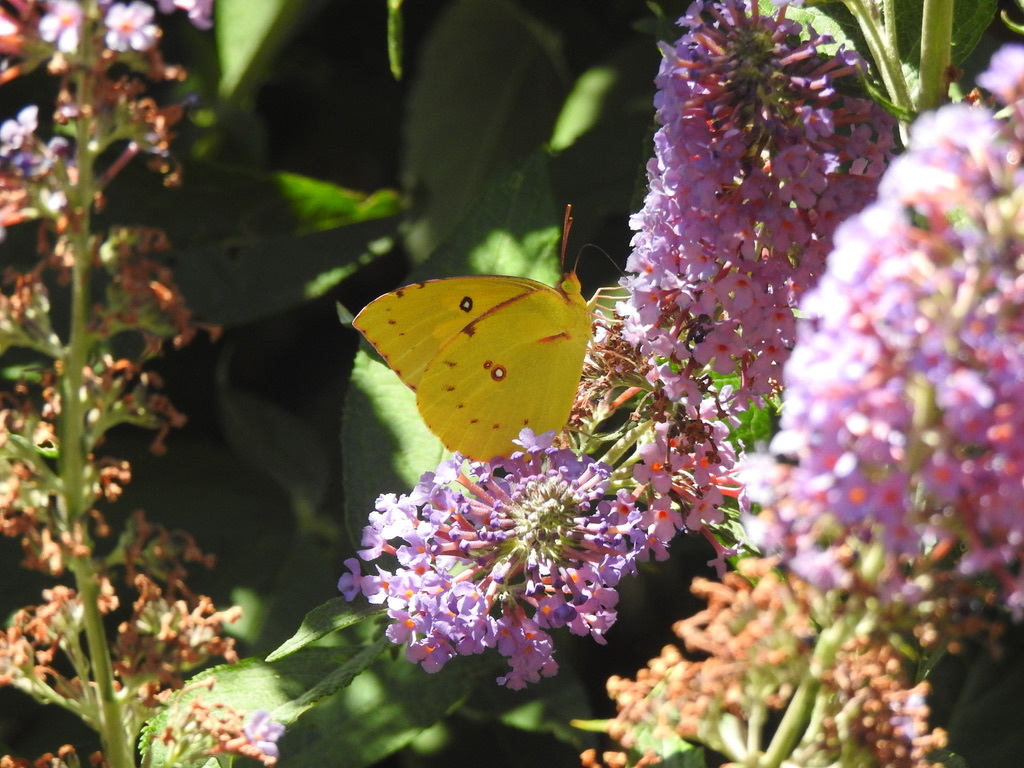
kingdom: Animalia
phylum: Arthropoda
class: Insecta
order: Lepidoptera
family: Pieridae
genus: Zerene
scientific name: Zerene eurydice
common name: California dogface
